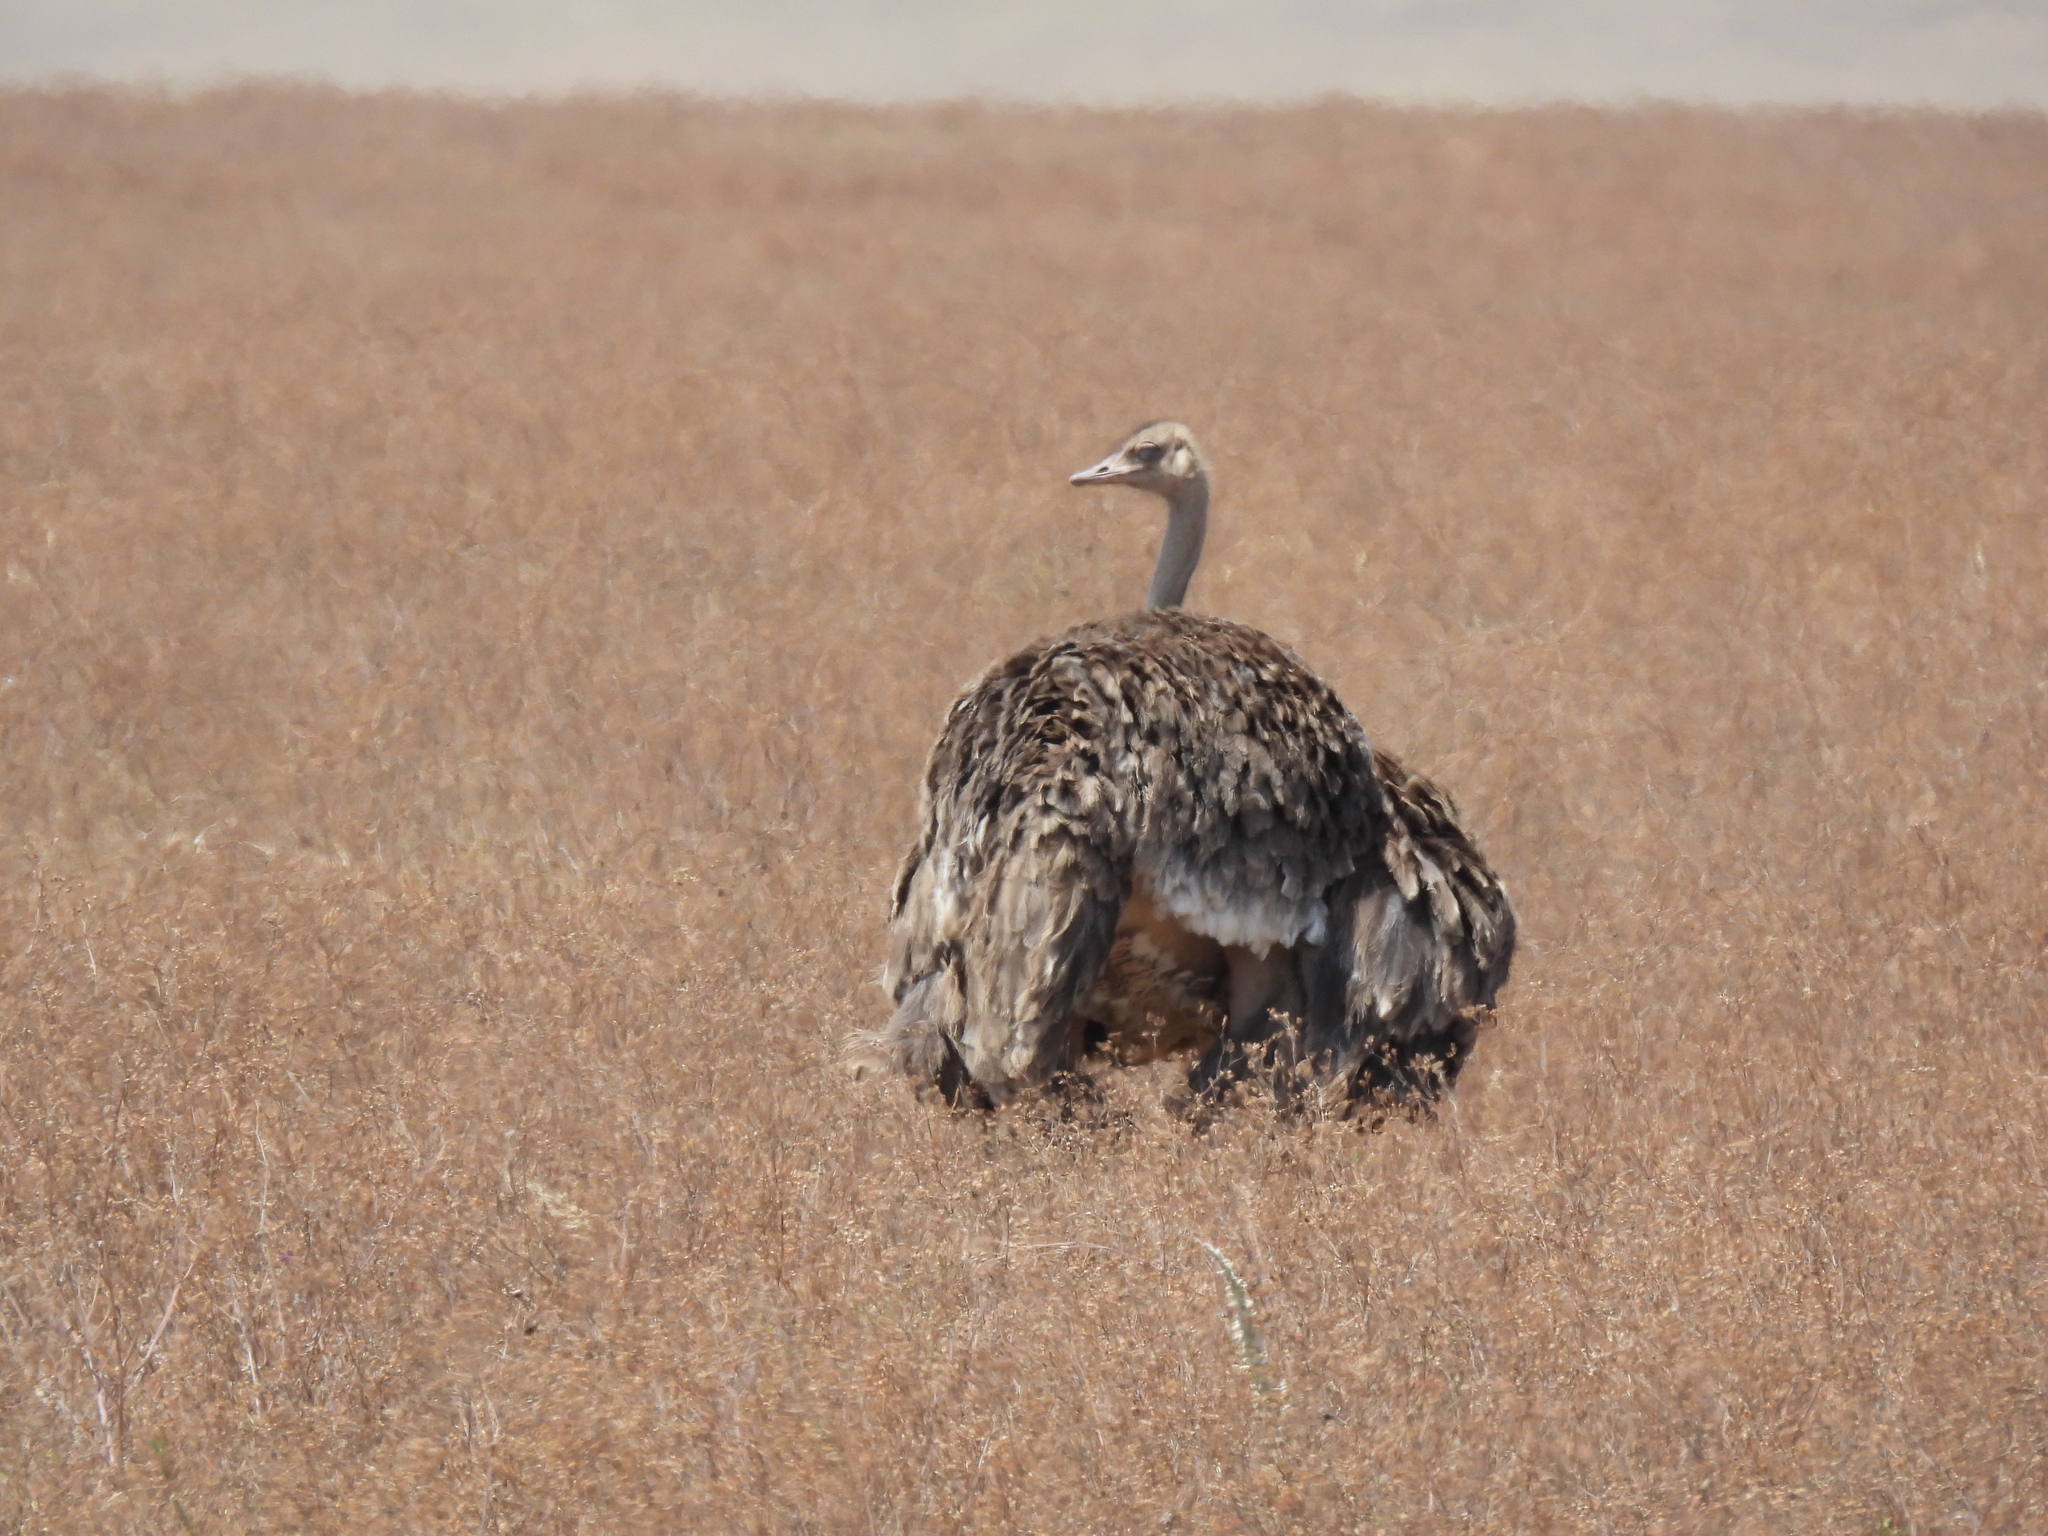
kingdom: Animalia
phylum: Chordata
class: Aves
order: Struthioniformes
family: Struthionidae
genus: Struthio
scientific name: Struthio camelus
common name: Common ostrich
